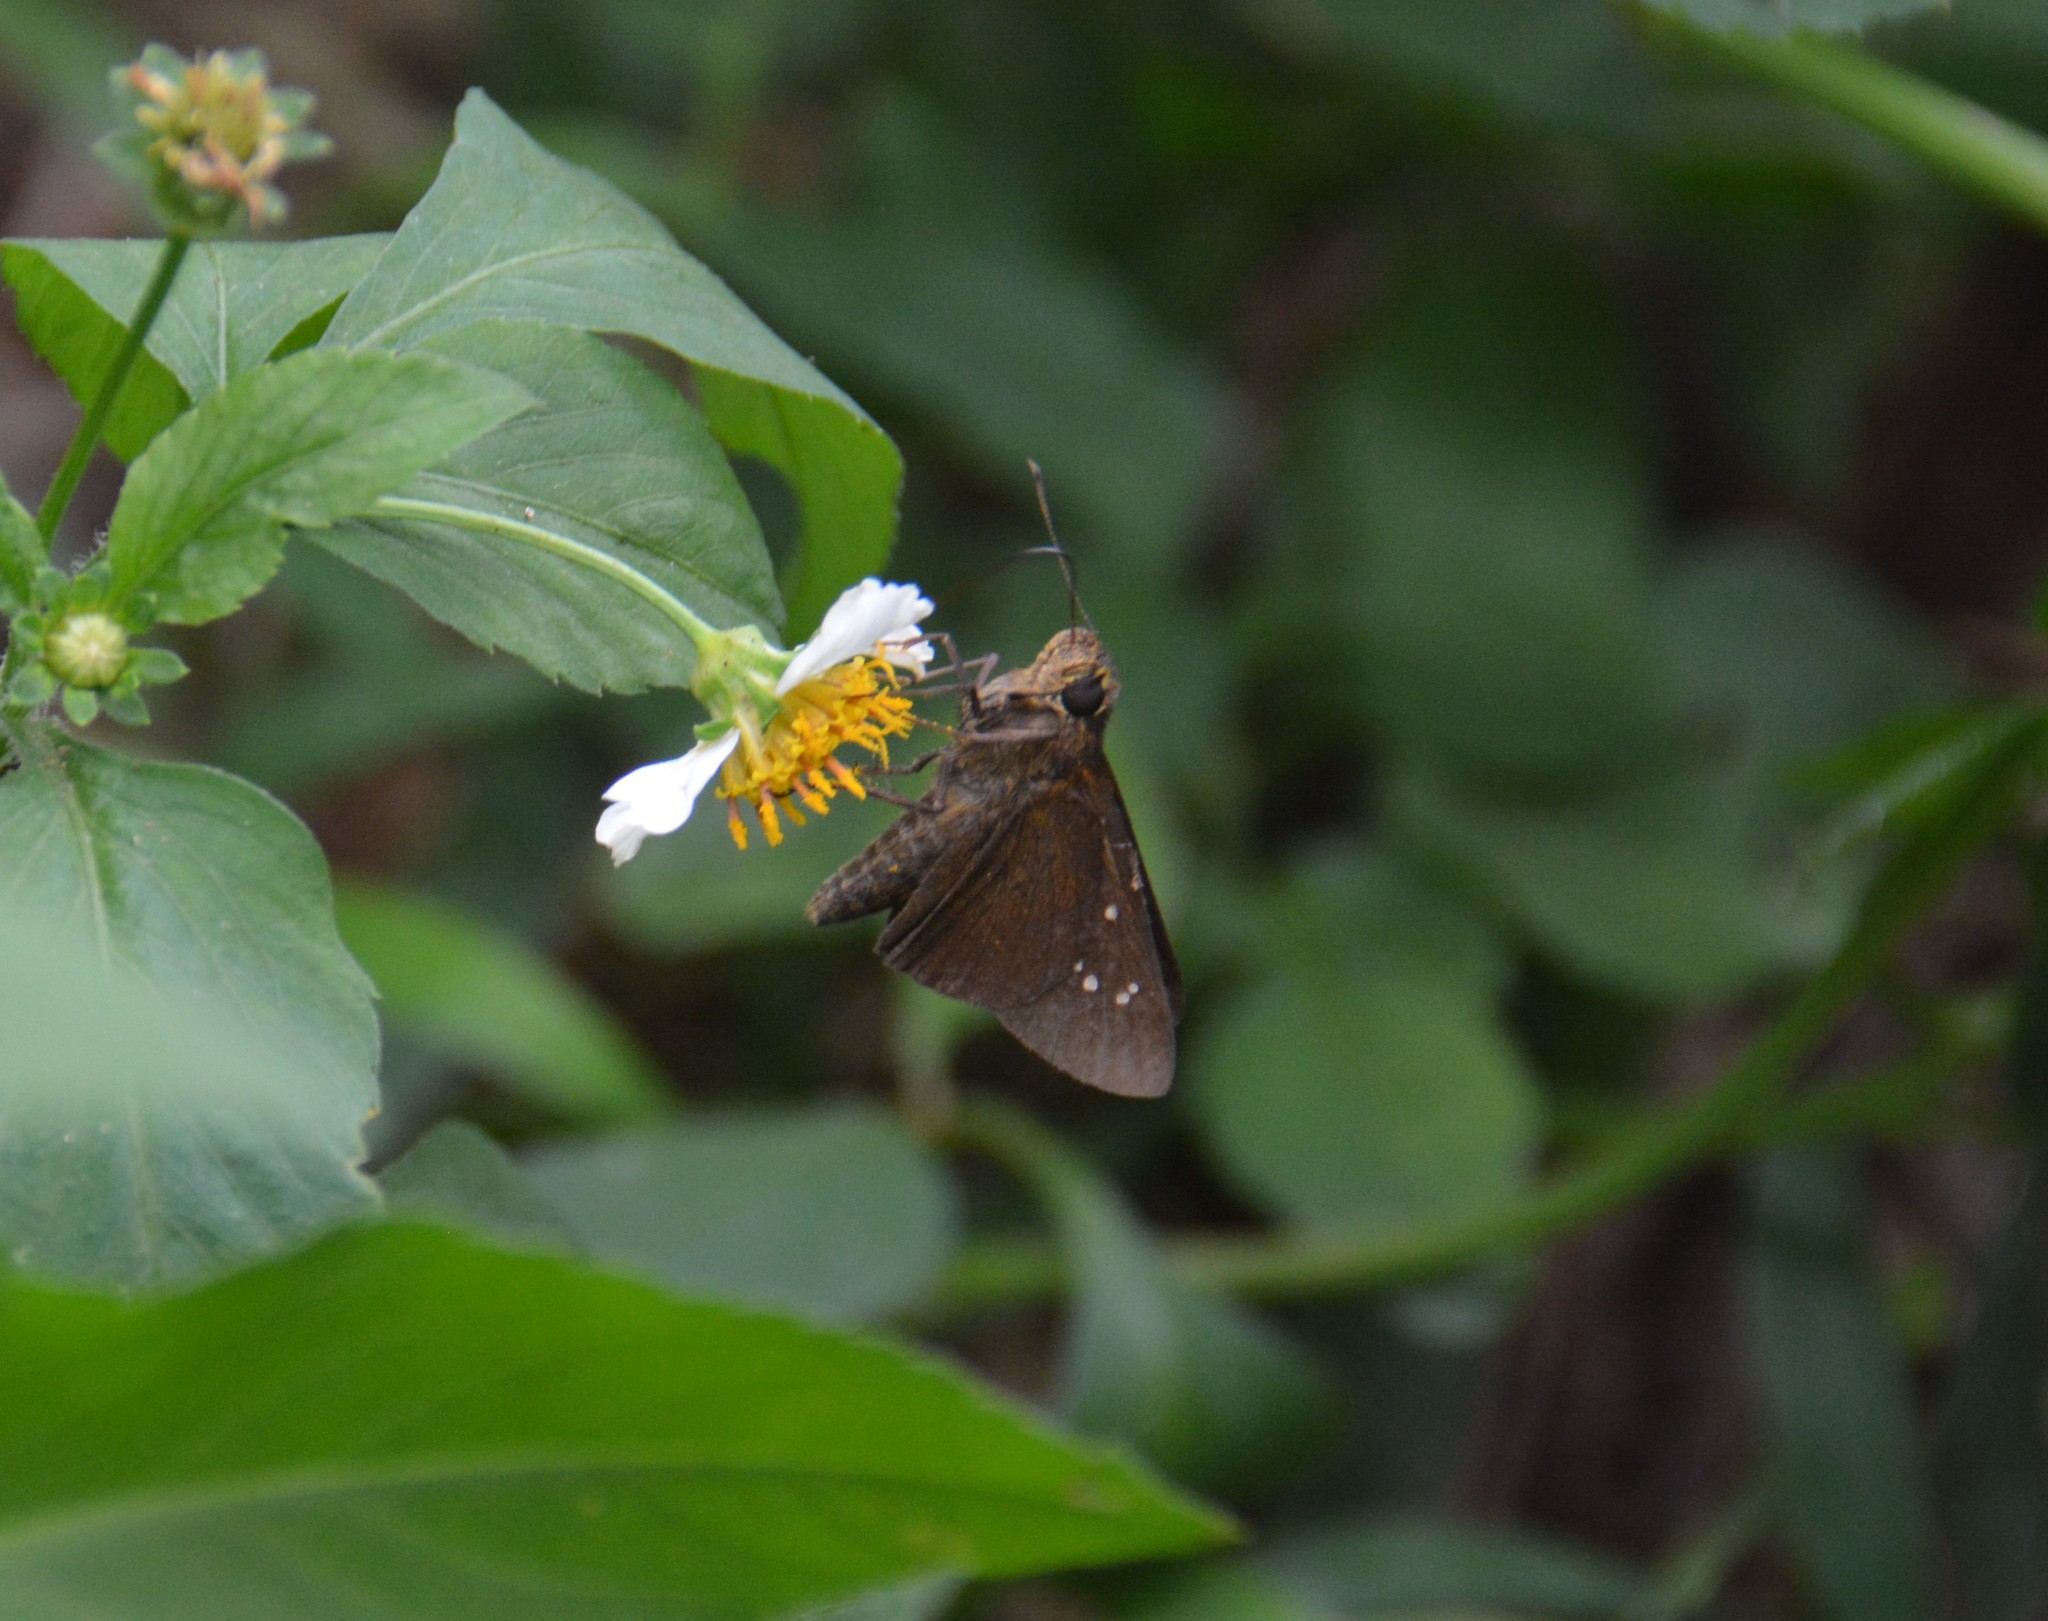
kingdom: Animalia
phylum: Arthropoda
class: Insecta
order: Lepidoptera
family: Hesperiidae
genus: Caltoris
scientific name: Caltoris cahira
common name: Colon swift
